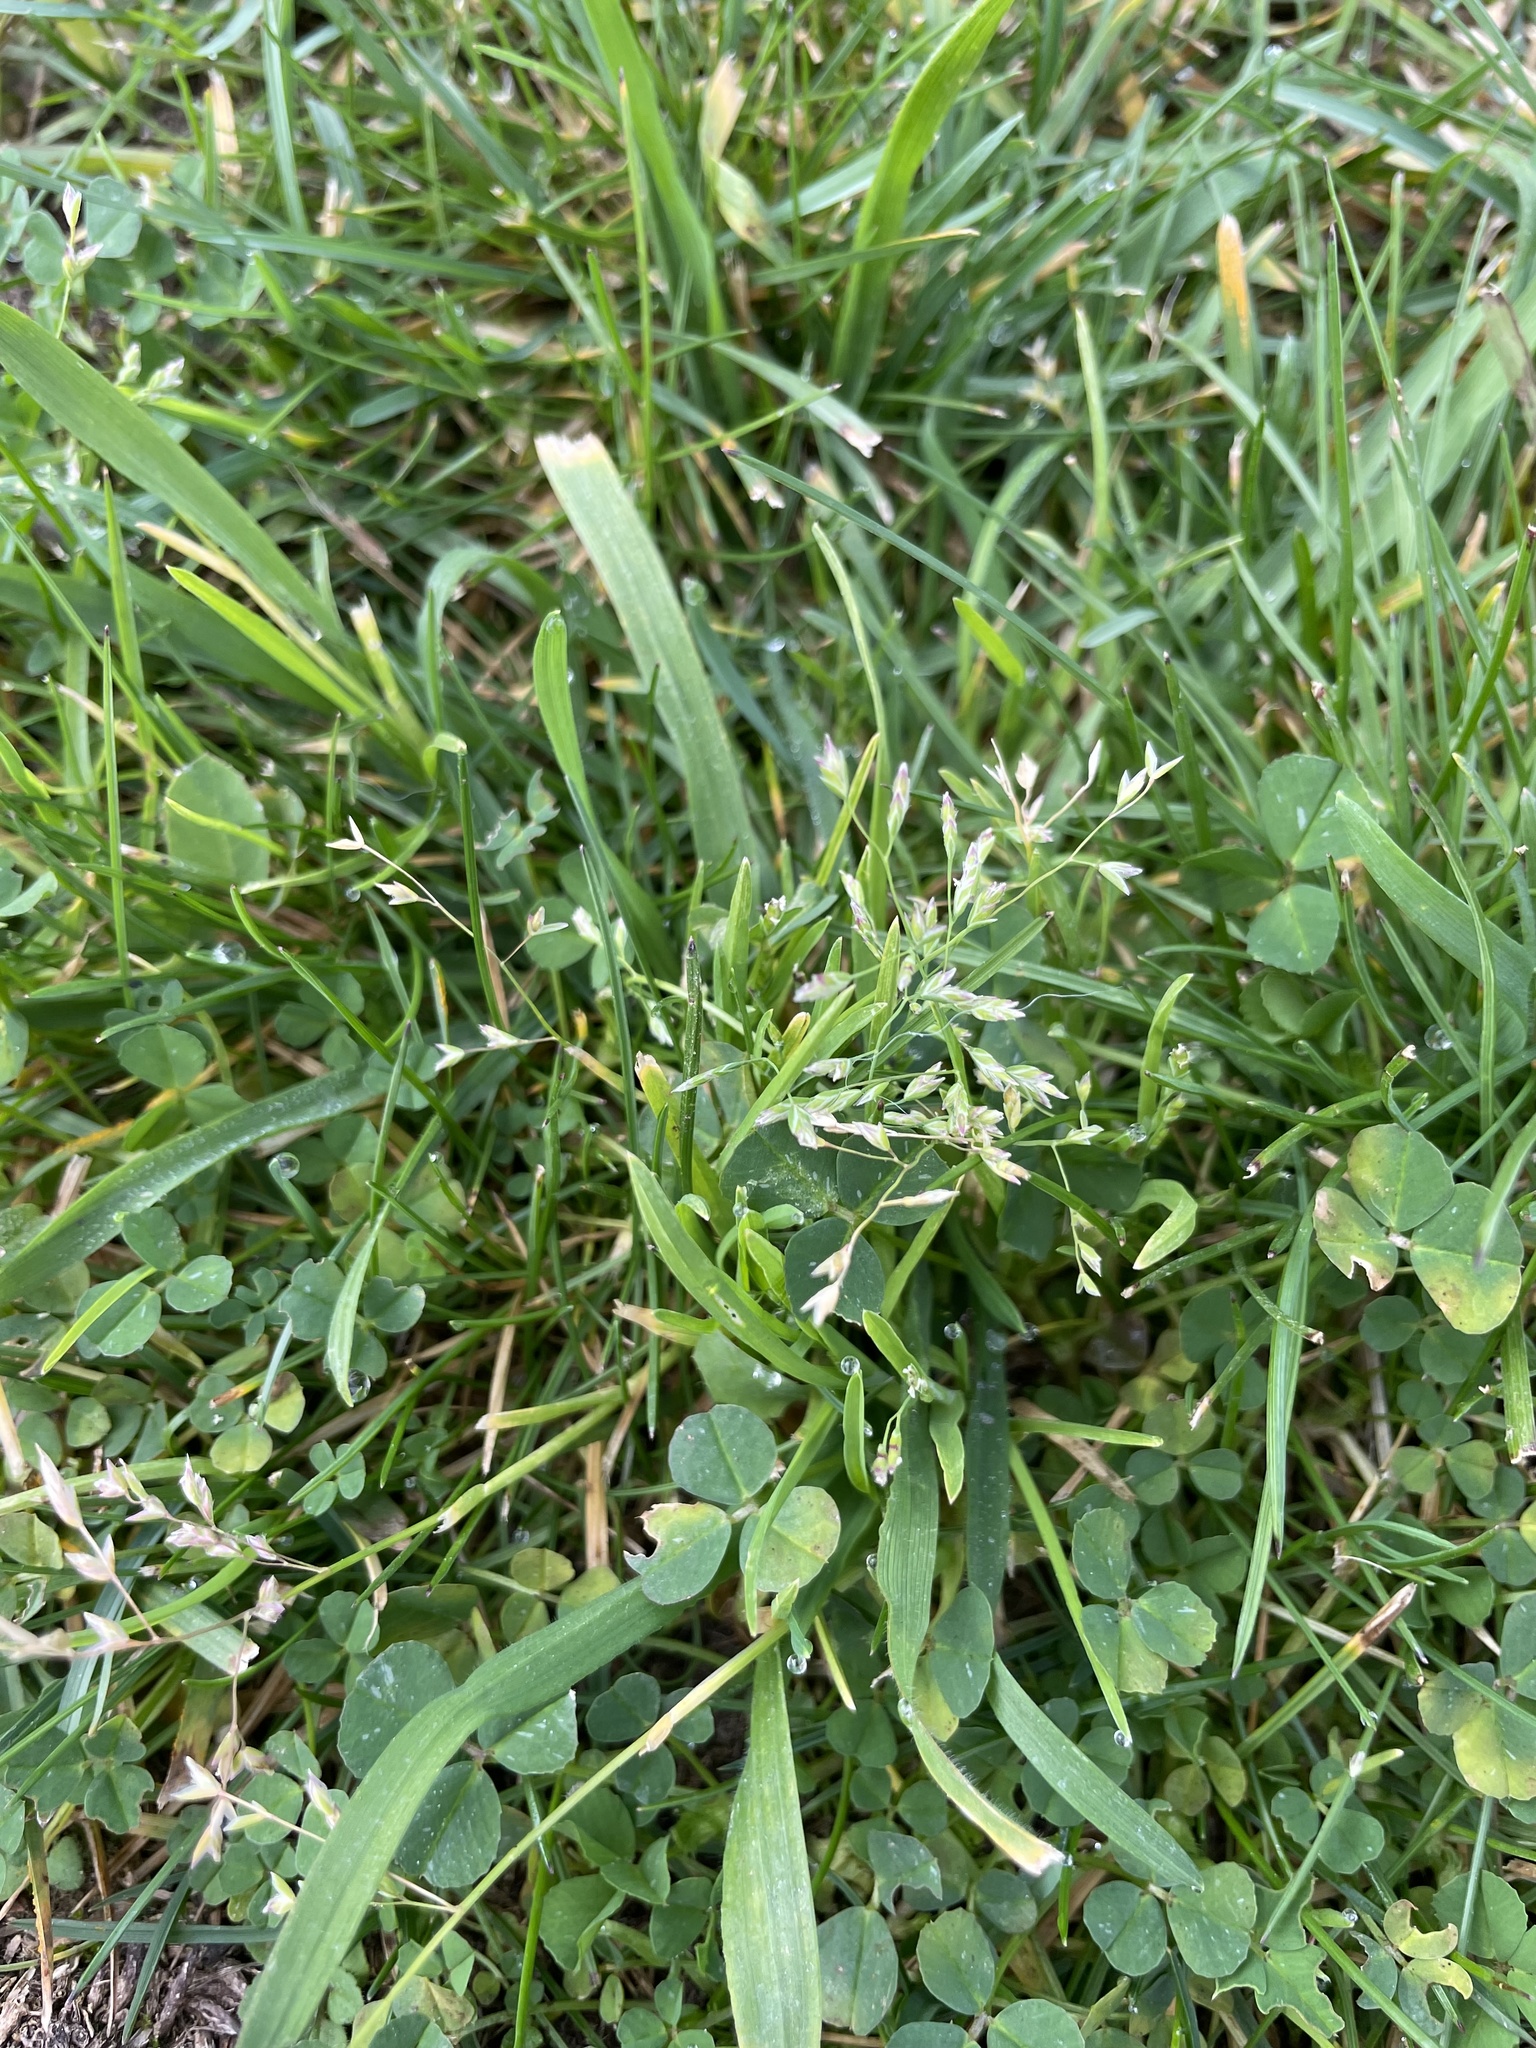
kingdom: Plantae
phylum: Tracheophyta
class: Liliopsida
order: Poales
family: Poaceae
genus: Poa
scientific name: Poa annua
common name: Annual bluegrass
